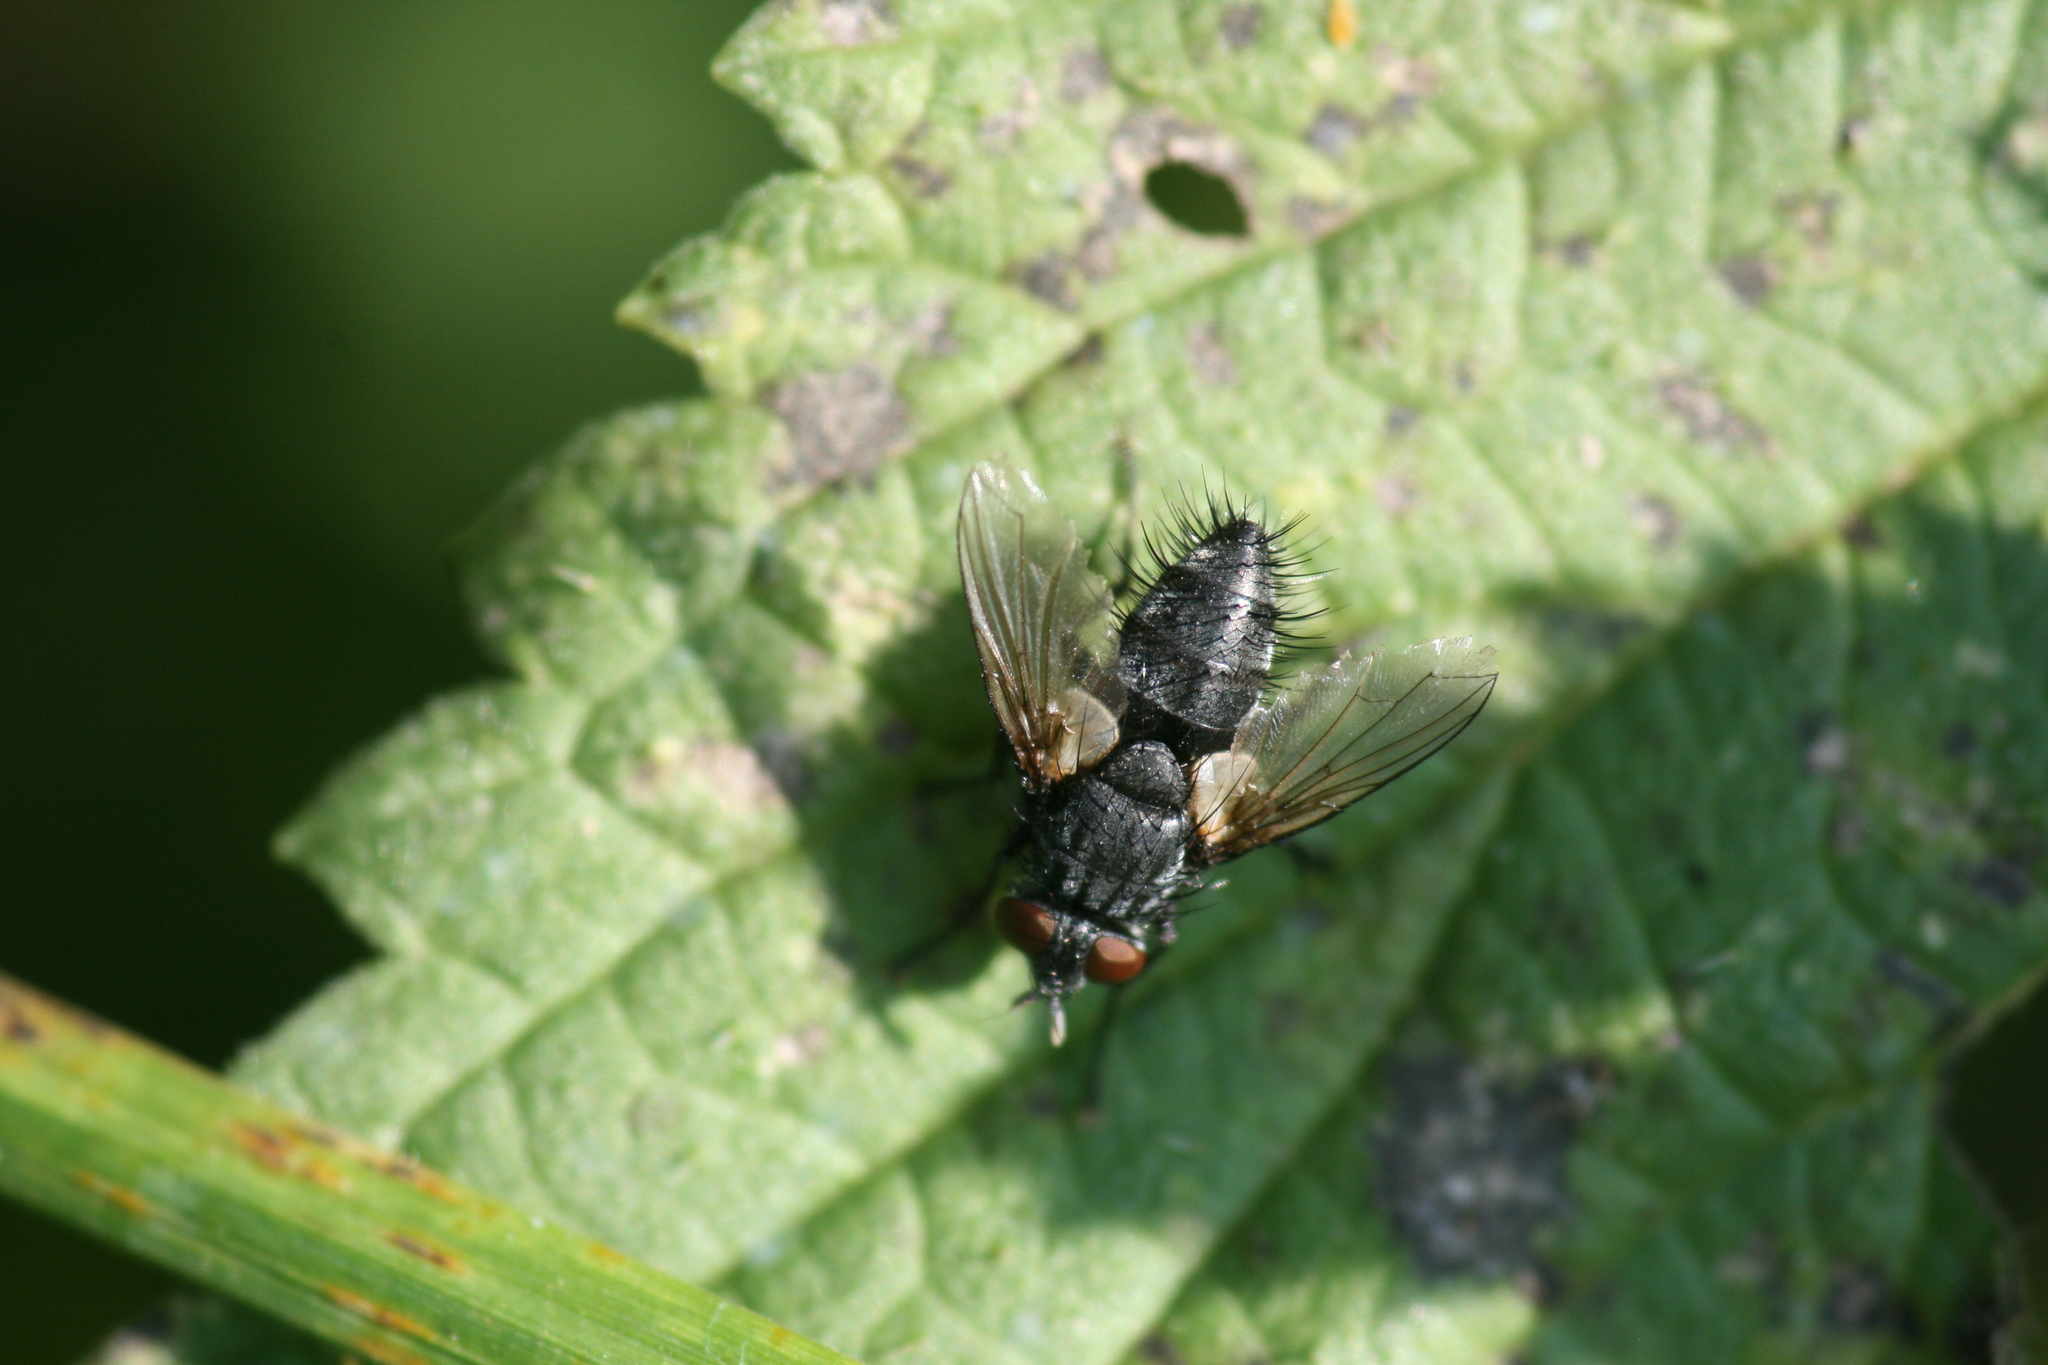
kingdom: Animalia
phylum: Arthropoda
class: Insecta
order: Diptera
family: Tachinidae
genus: Blondelia
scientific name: Blondelia nigripes
